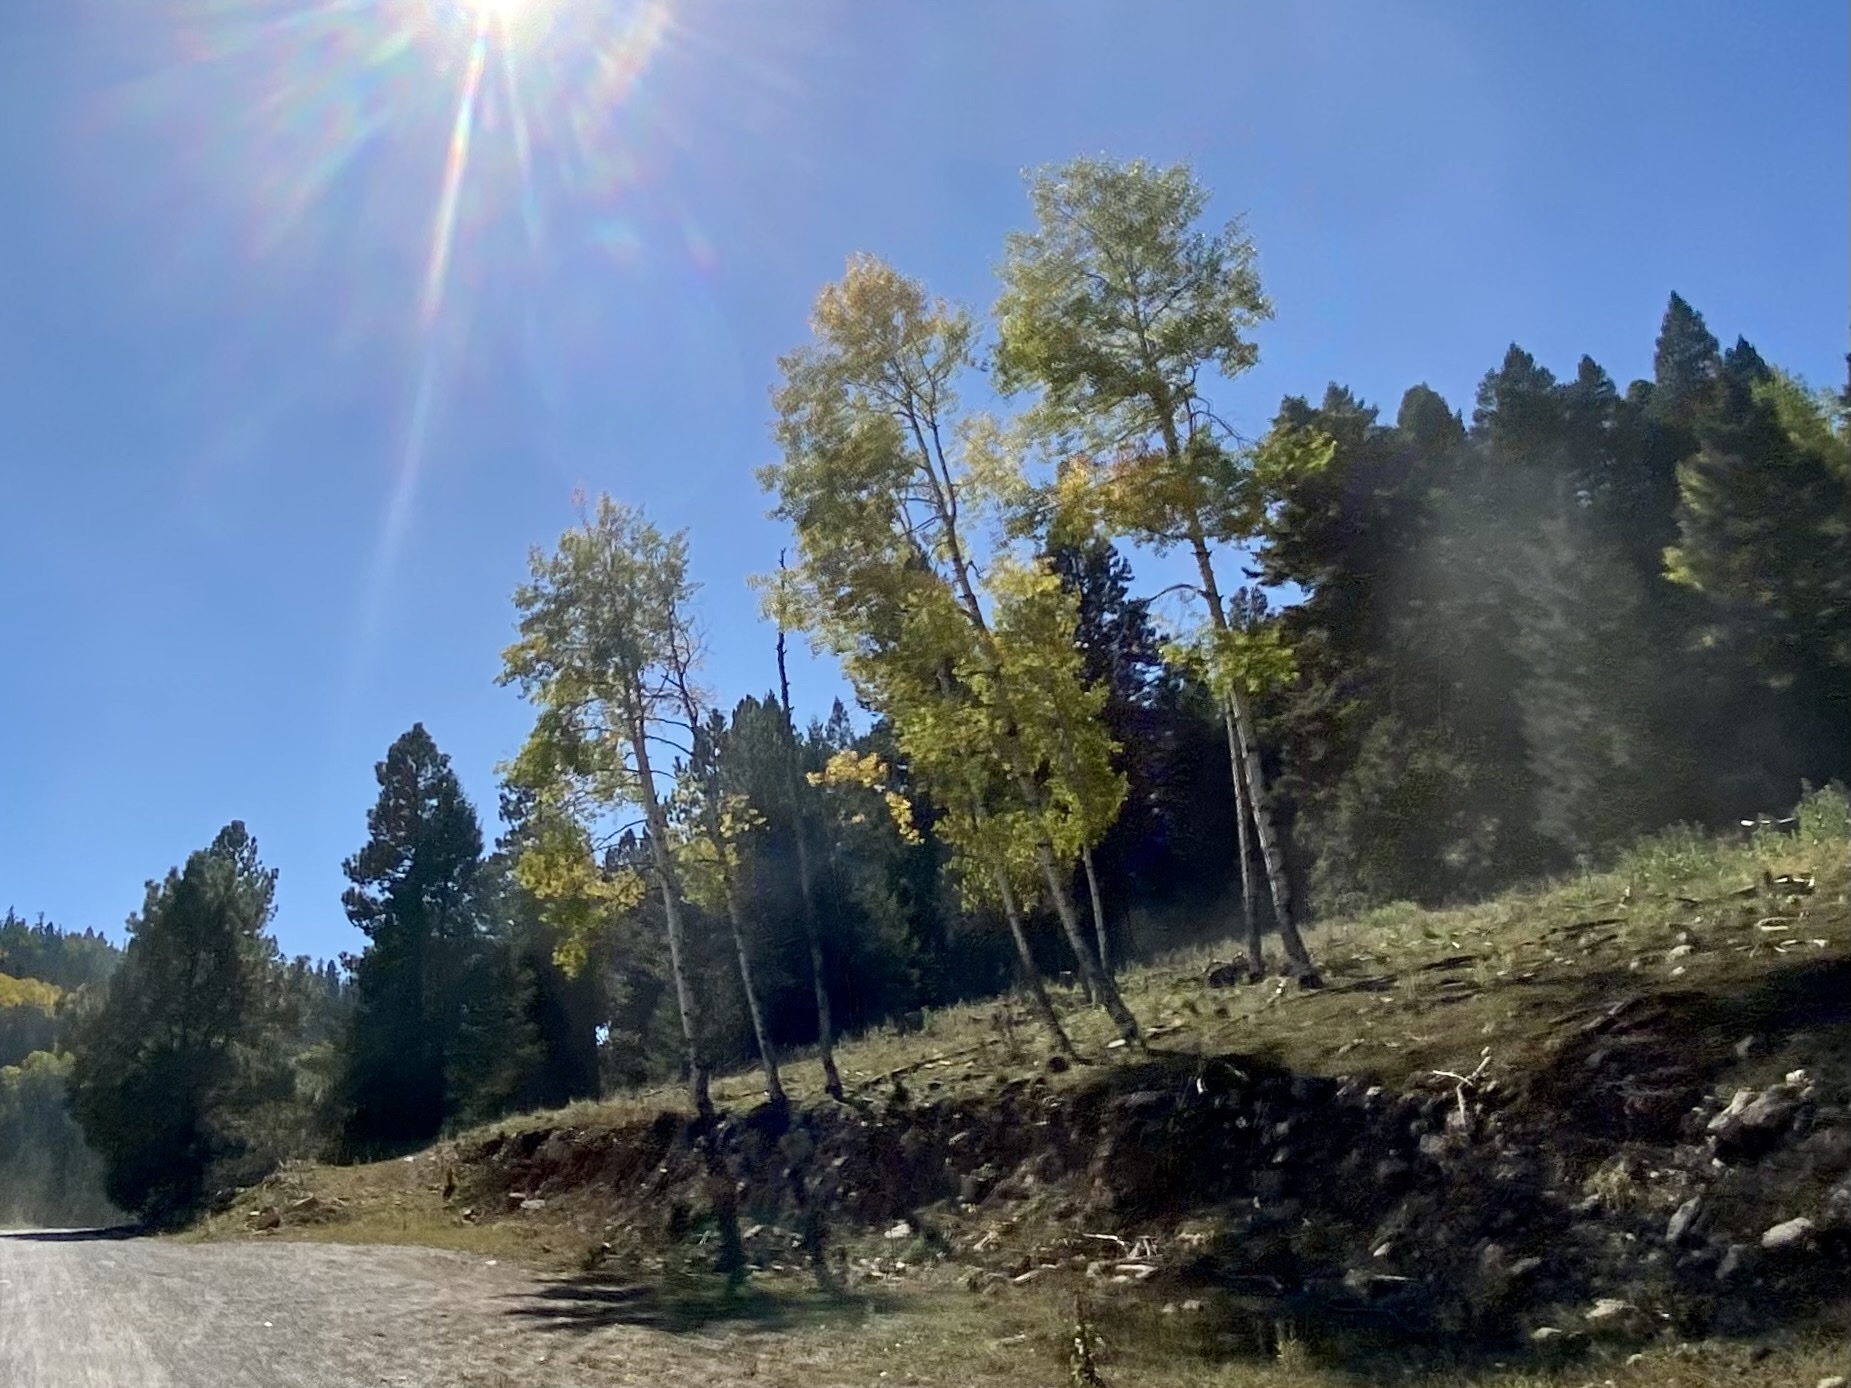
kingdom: Plantae
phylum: Tracheophyta
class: Magnoliopsida
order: Malpighiales
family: Salicaceae
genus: Populus
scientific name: Populus tremuloides
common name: Quaking aspen
